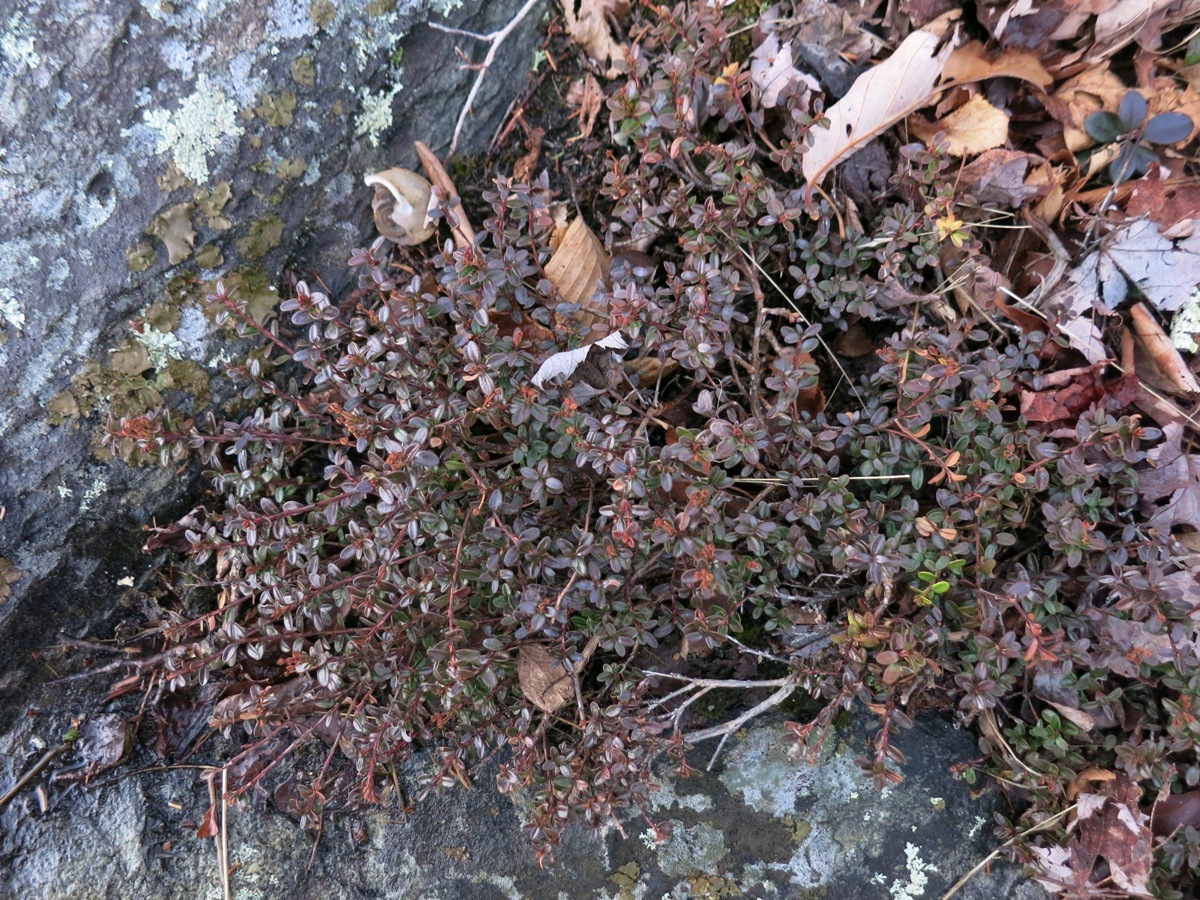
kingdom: Plantae
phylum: Tracheophyta
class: Magnoliopsida
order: Ericales
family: Ericaceae
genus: Kalmia
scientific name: Kalmia buxifolia
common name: Sandmyrtle
